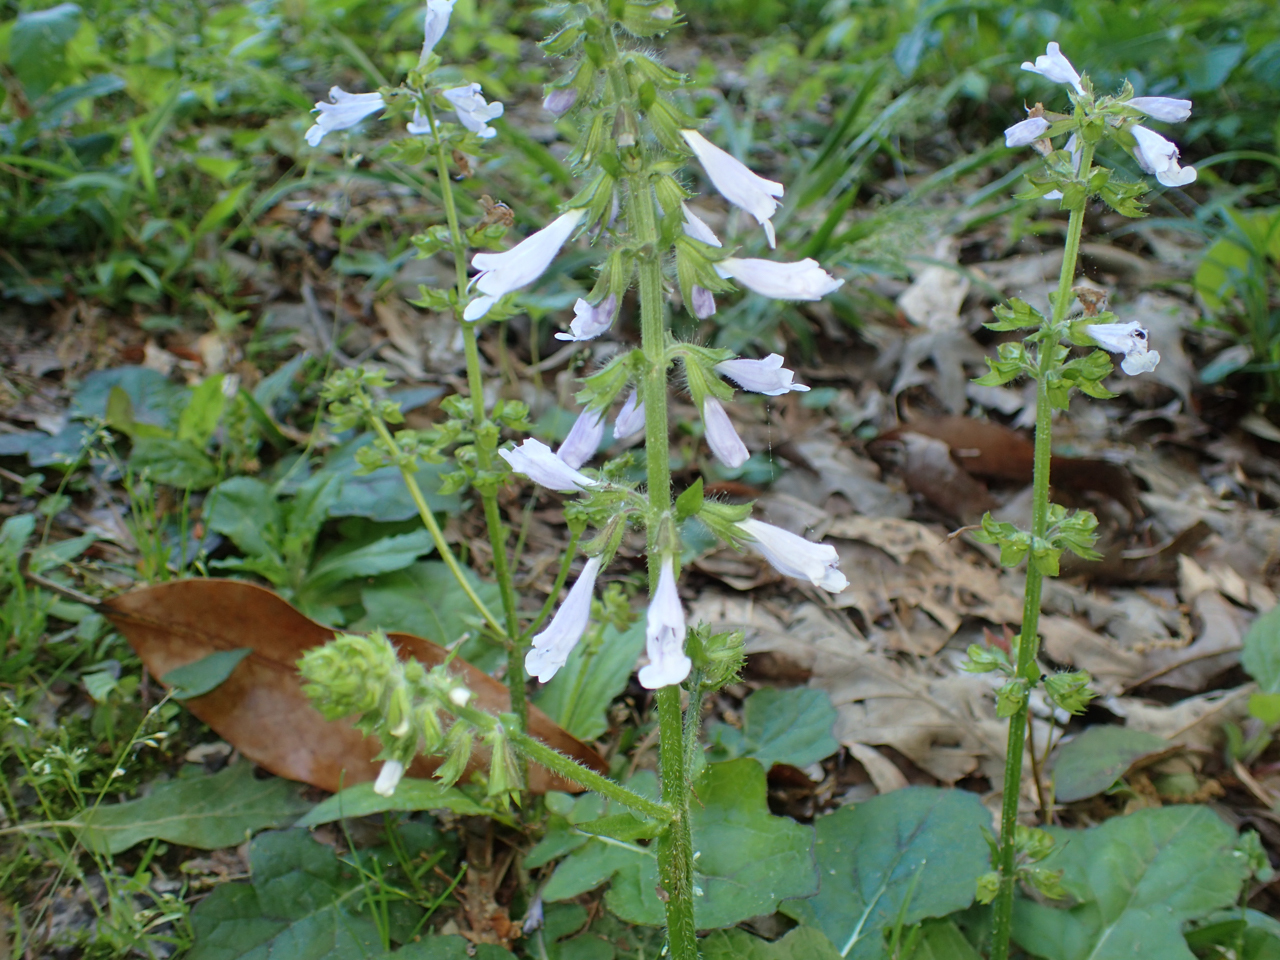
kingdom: Plantae
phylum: Tracheophyta
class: Magnoliopsida
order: Lamiales
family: Lamiaceae
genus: Salvia
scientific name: Salvia lyrata
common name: Cancerweed
